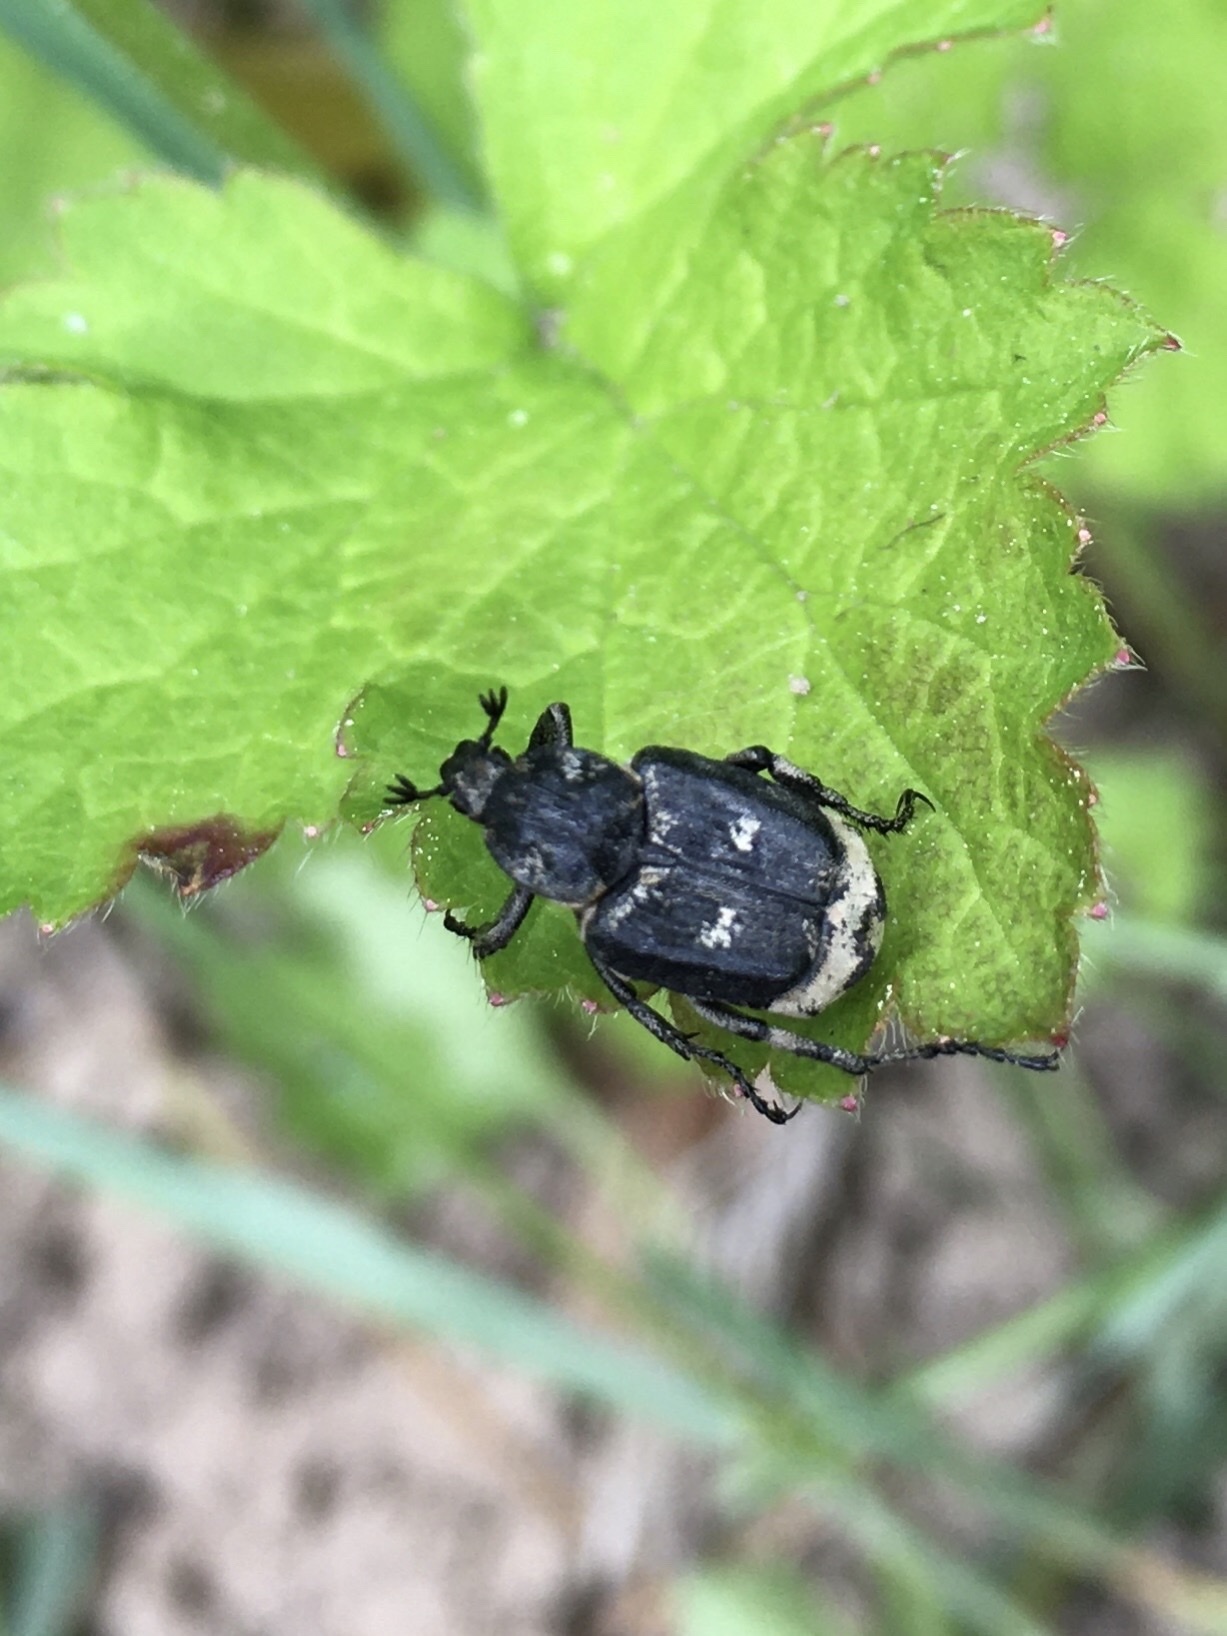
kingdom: Animalia
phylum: Arthropoda
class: Insecta
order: Coleoptera
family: Scarabaeidae
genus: Valgus
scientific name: Valgus hemipterus
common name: Bug flower chafer
